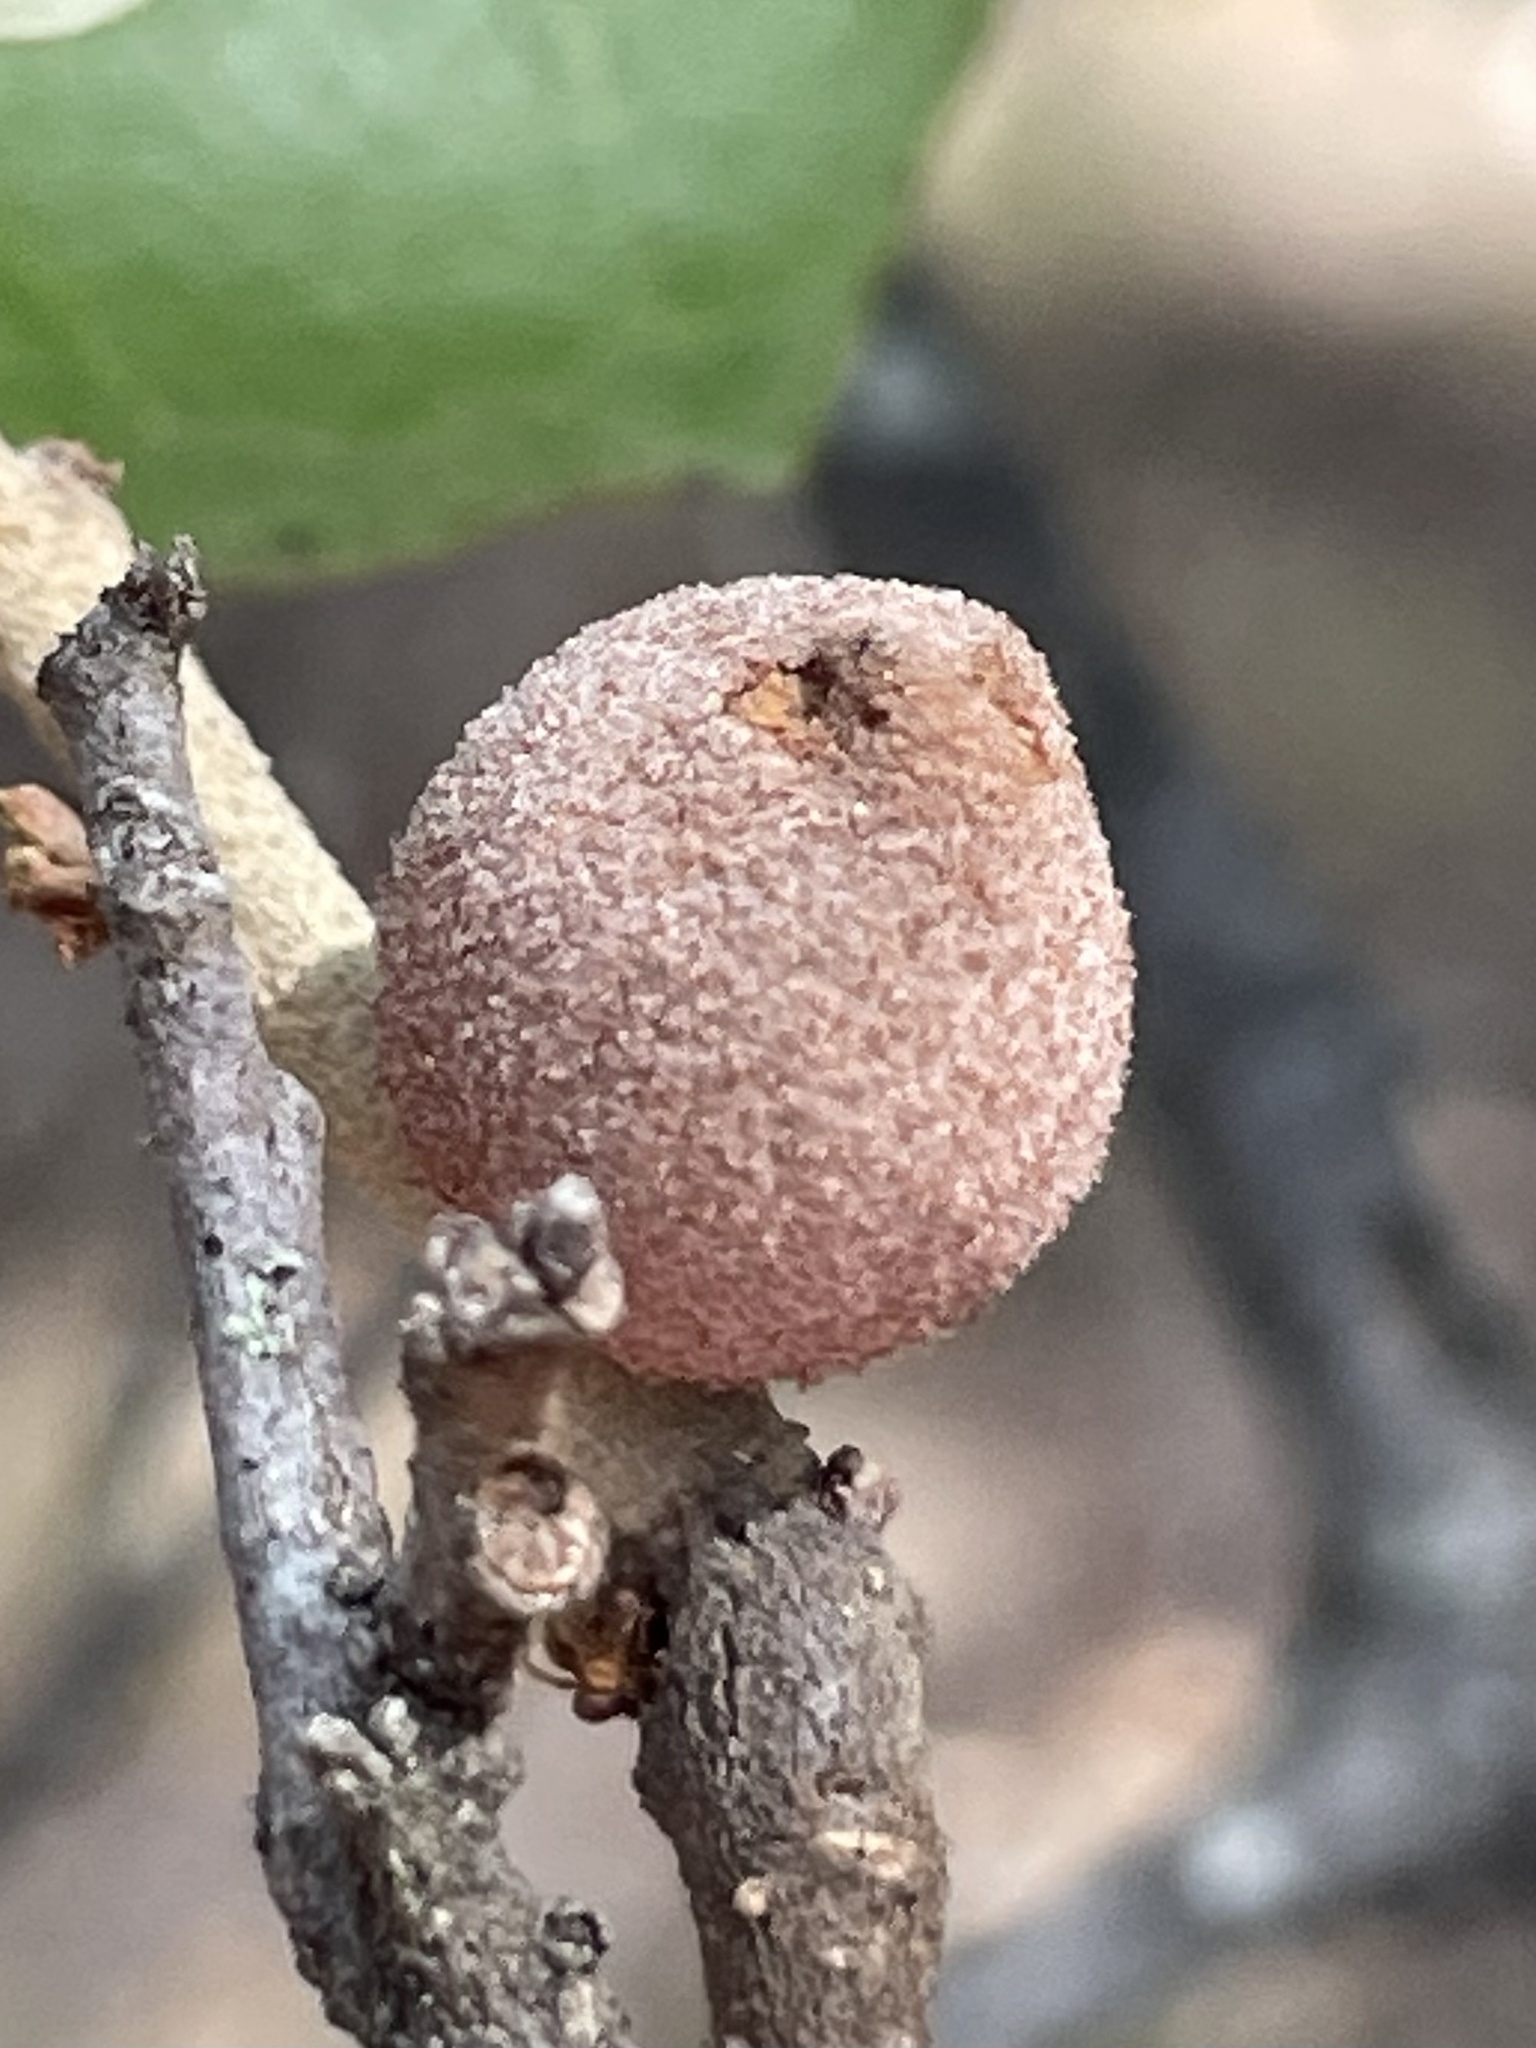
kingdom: Animalia
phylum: Arthropoda
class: Insecta
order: Hymenoptera
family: Cynipidae
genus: Disholcaspis
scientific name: Disholcaspis
